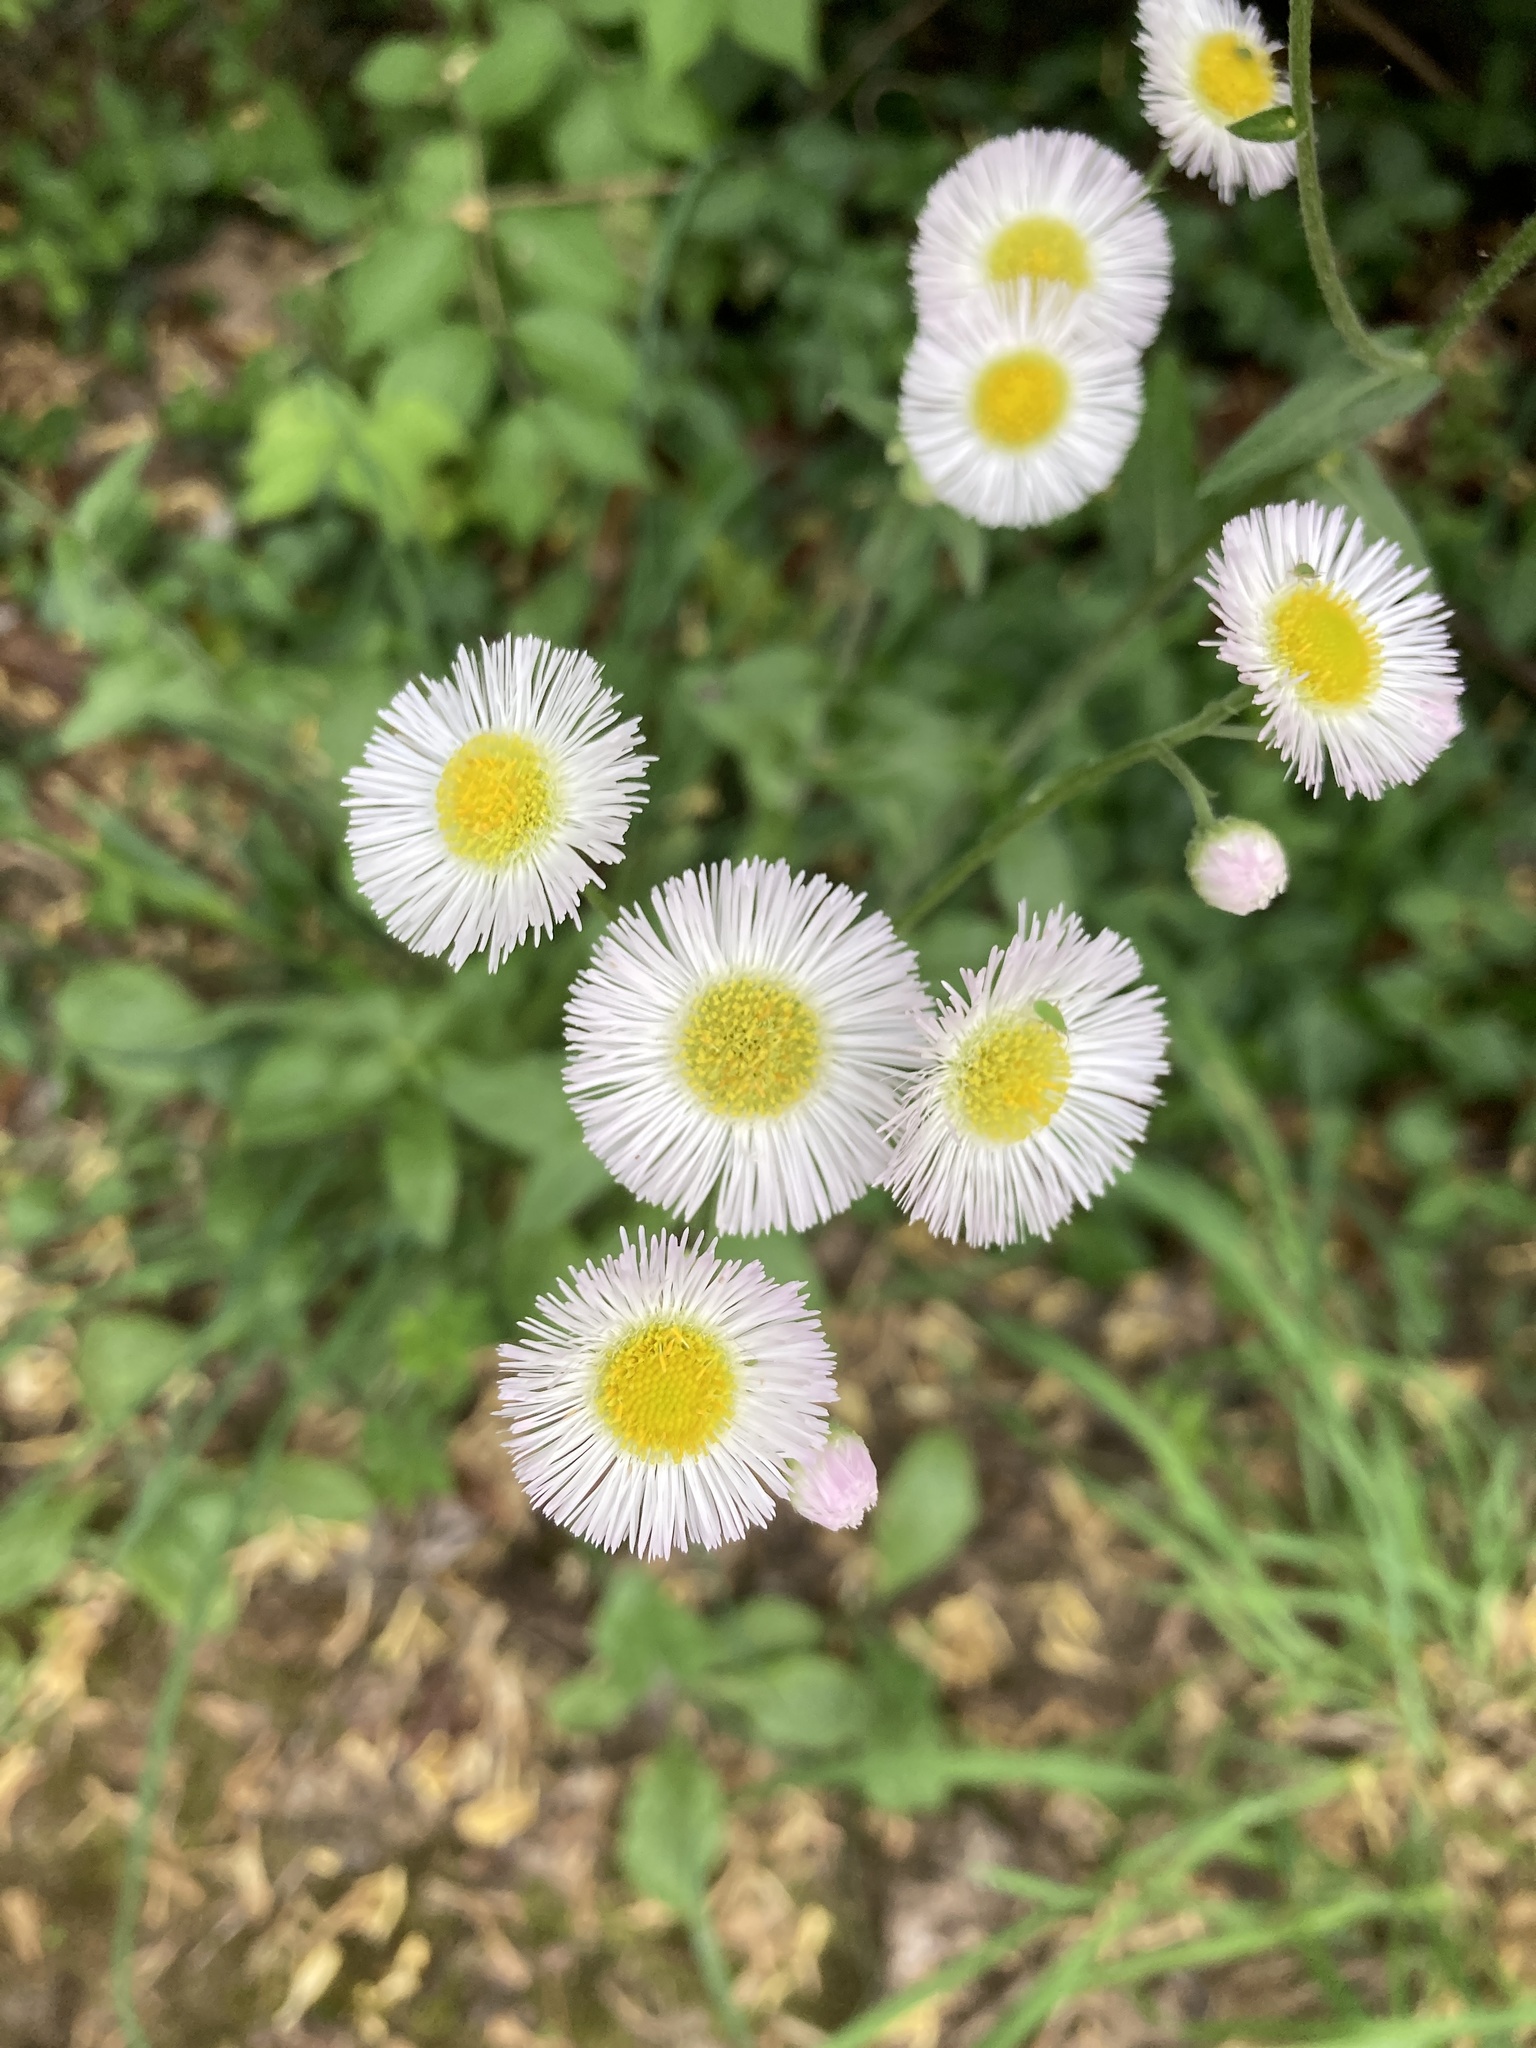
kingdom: Plantae
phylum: Tracheophyta
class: Magnoliopsida
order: Asterales
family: Asteraceae
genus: Erigeron
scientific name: Erigeron philadelphicus
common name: Robin's-plantain
